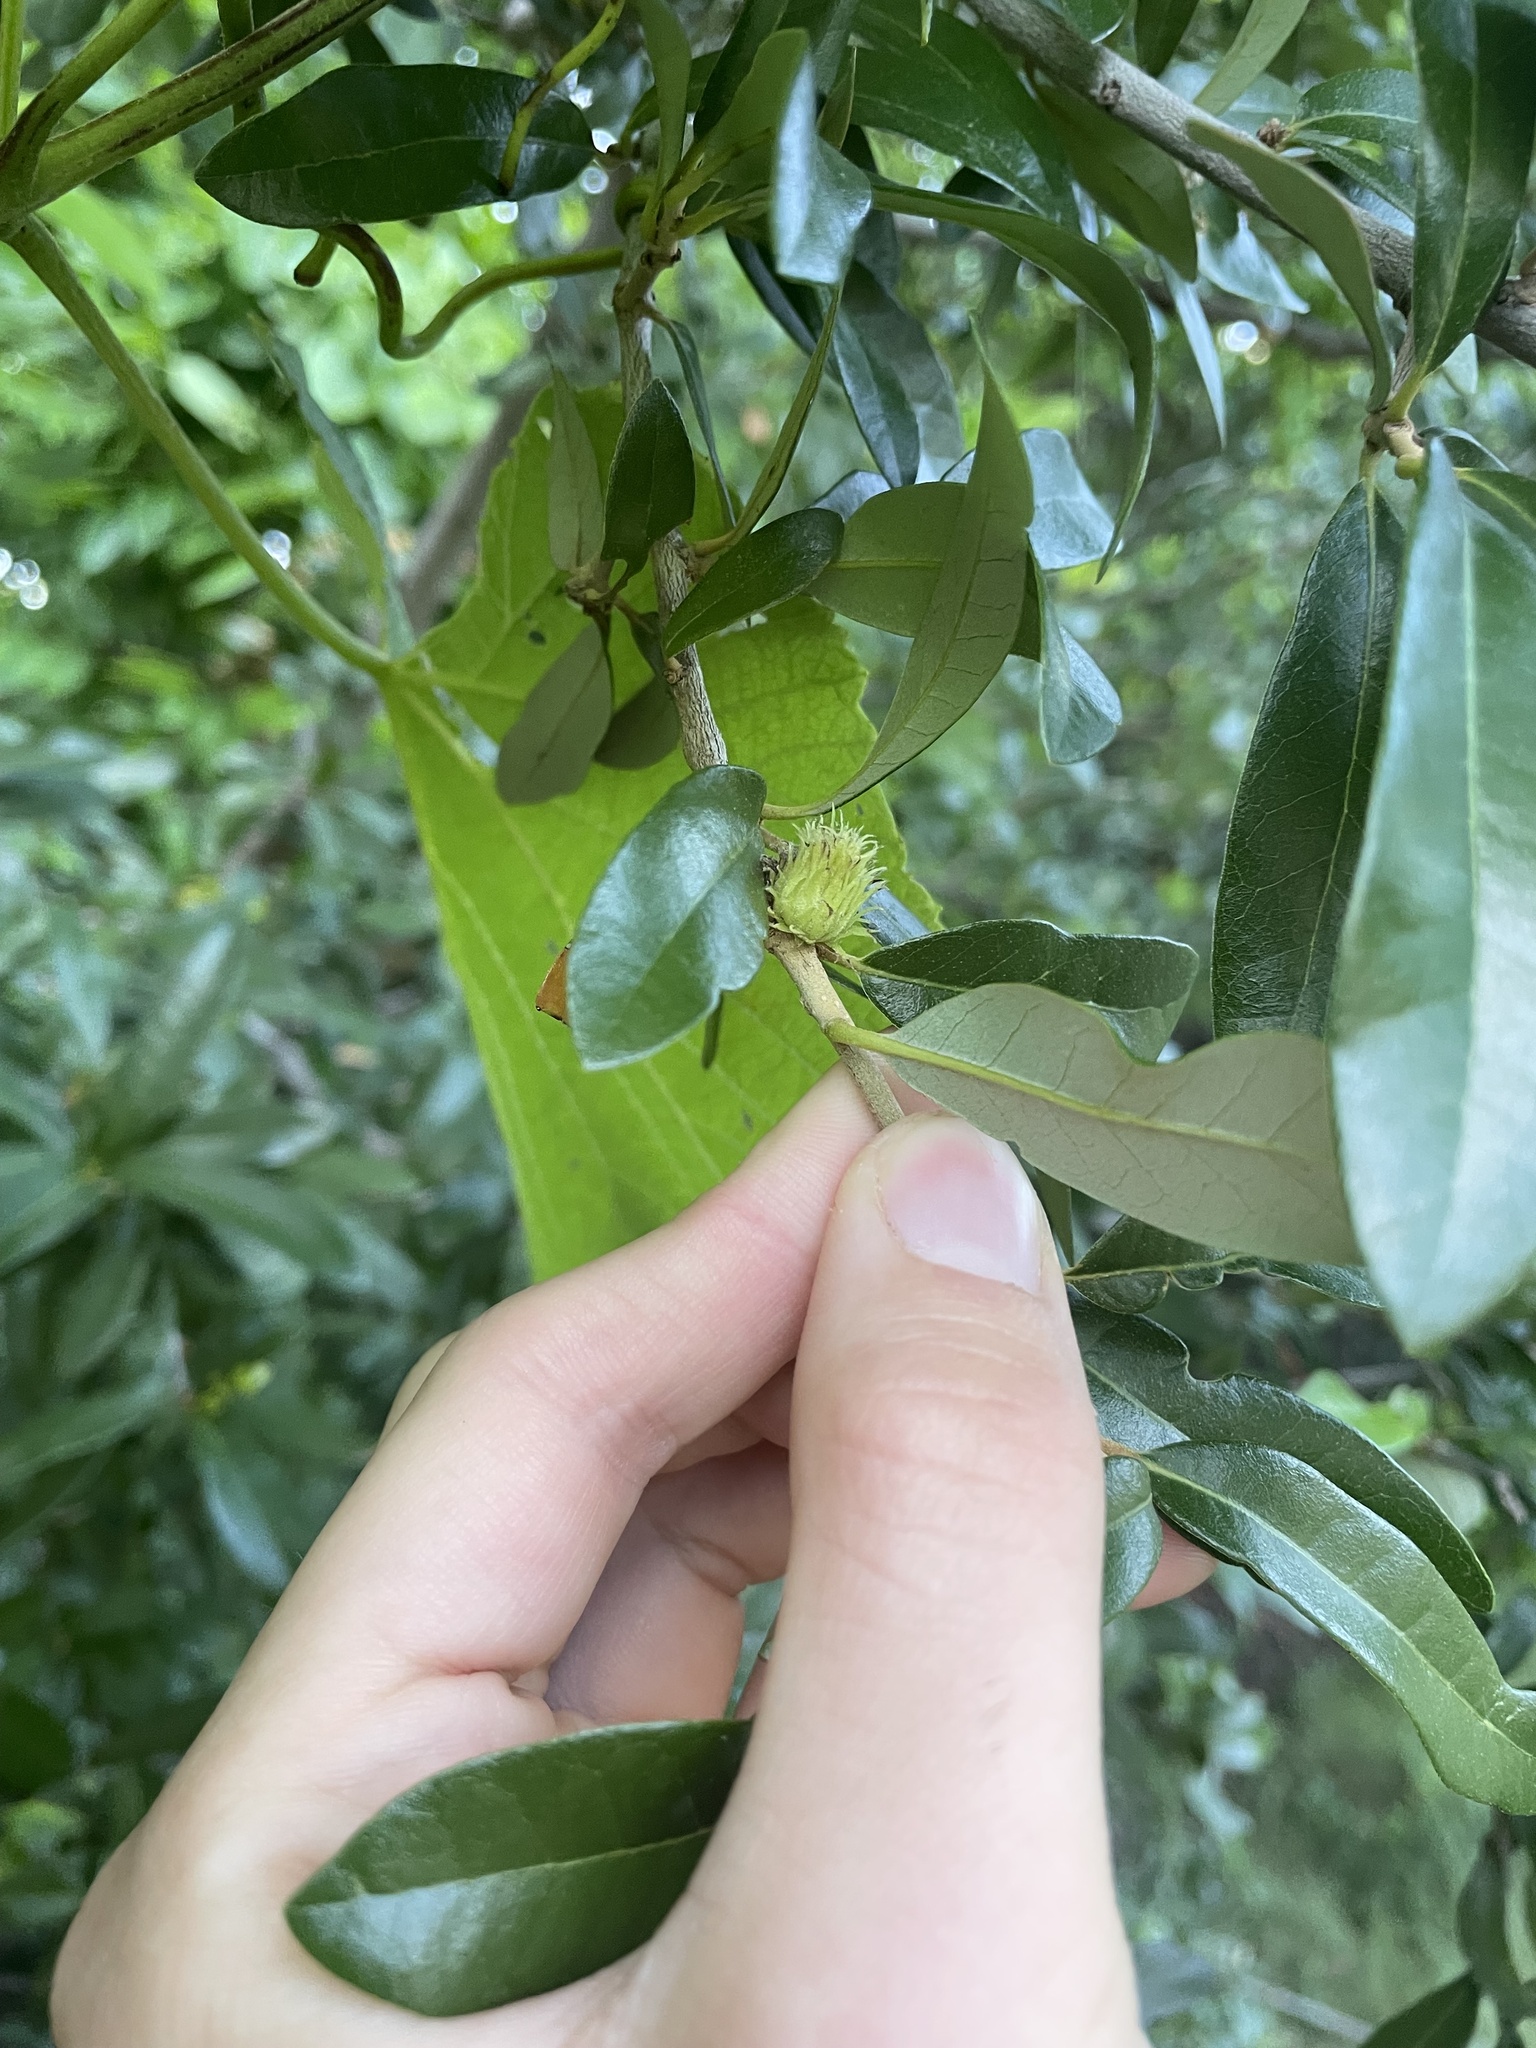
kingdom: Animalia
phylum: Arthropoda
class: Insecta
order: Hymenoptera
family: Cynipidae
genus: Andricus
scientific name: Andricus quercusfoliatus
